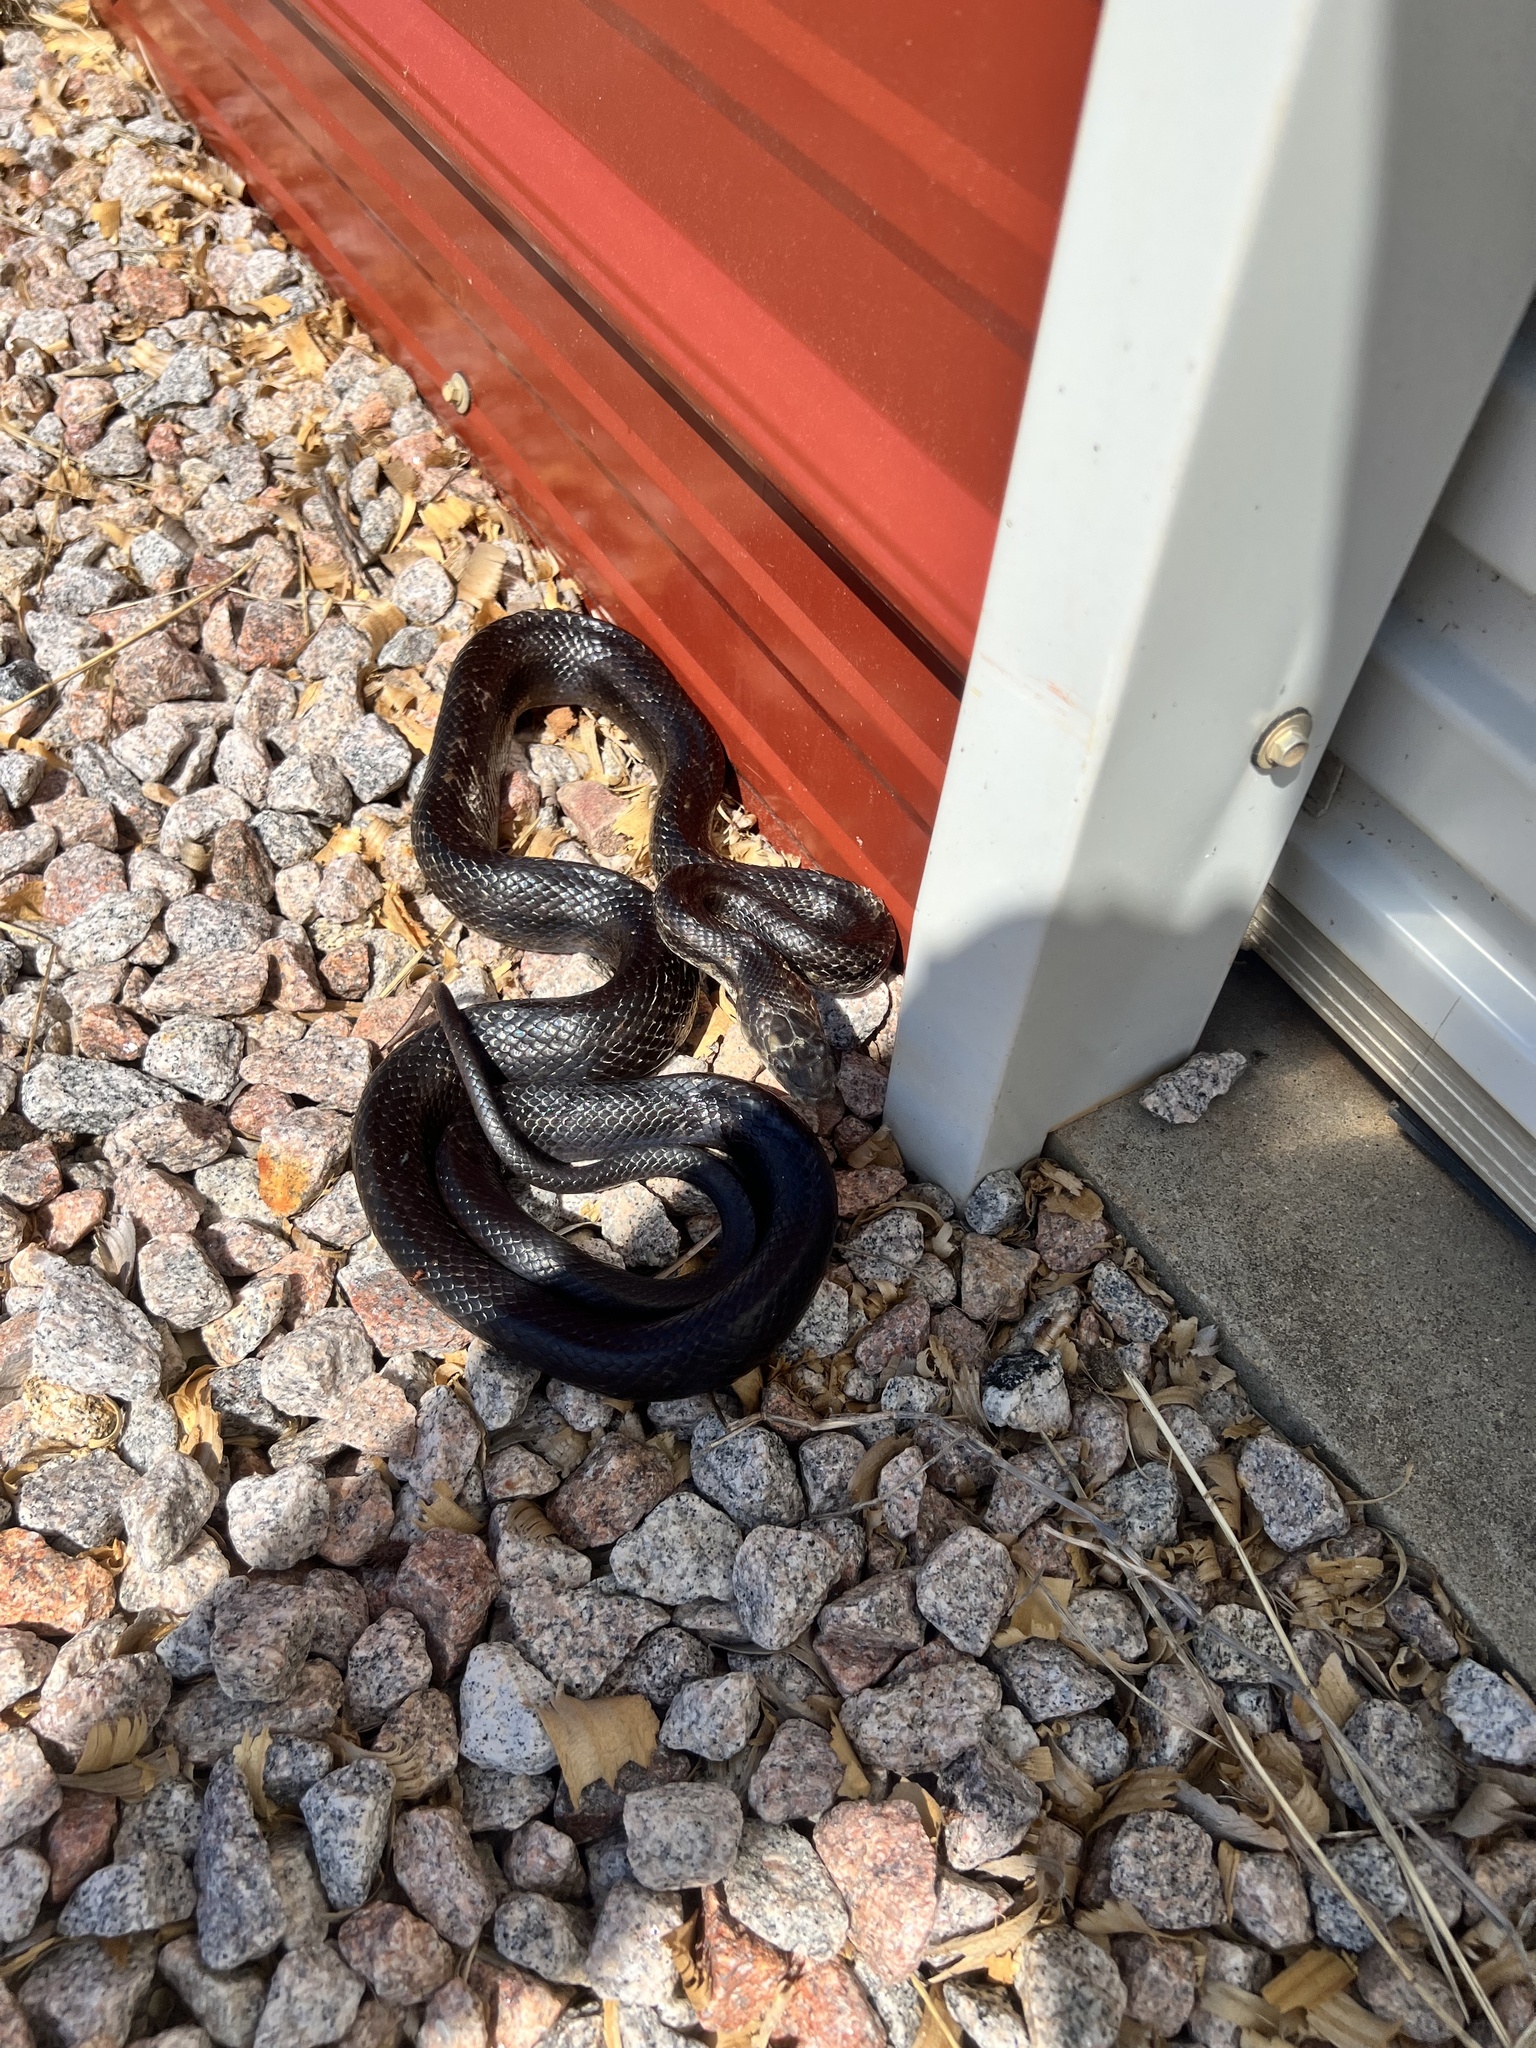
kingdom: Animalia
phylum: Chordata
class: Squamata
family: Colubridae
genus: Pantherophis
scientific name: Pantherophis
